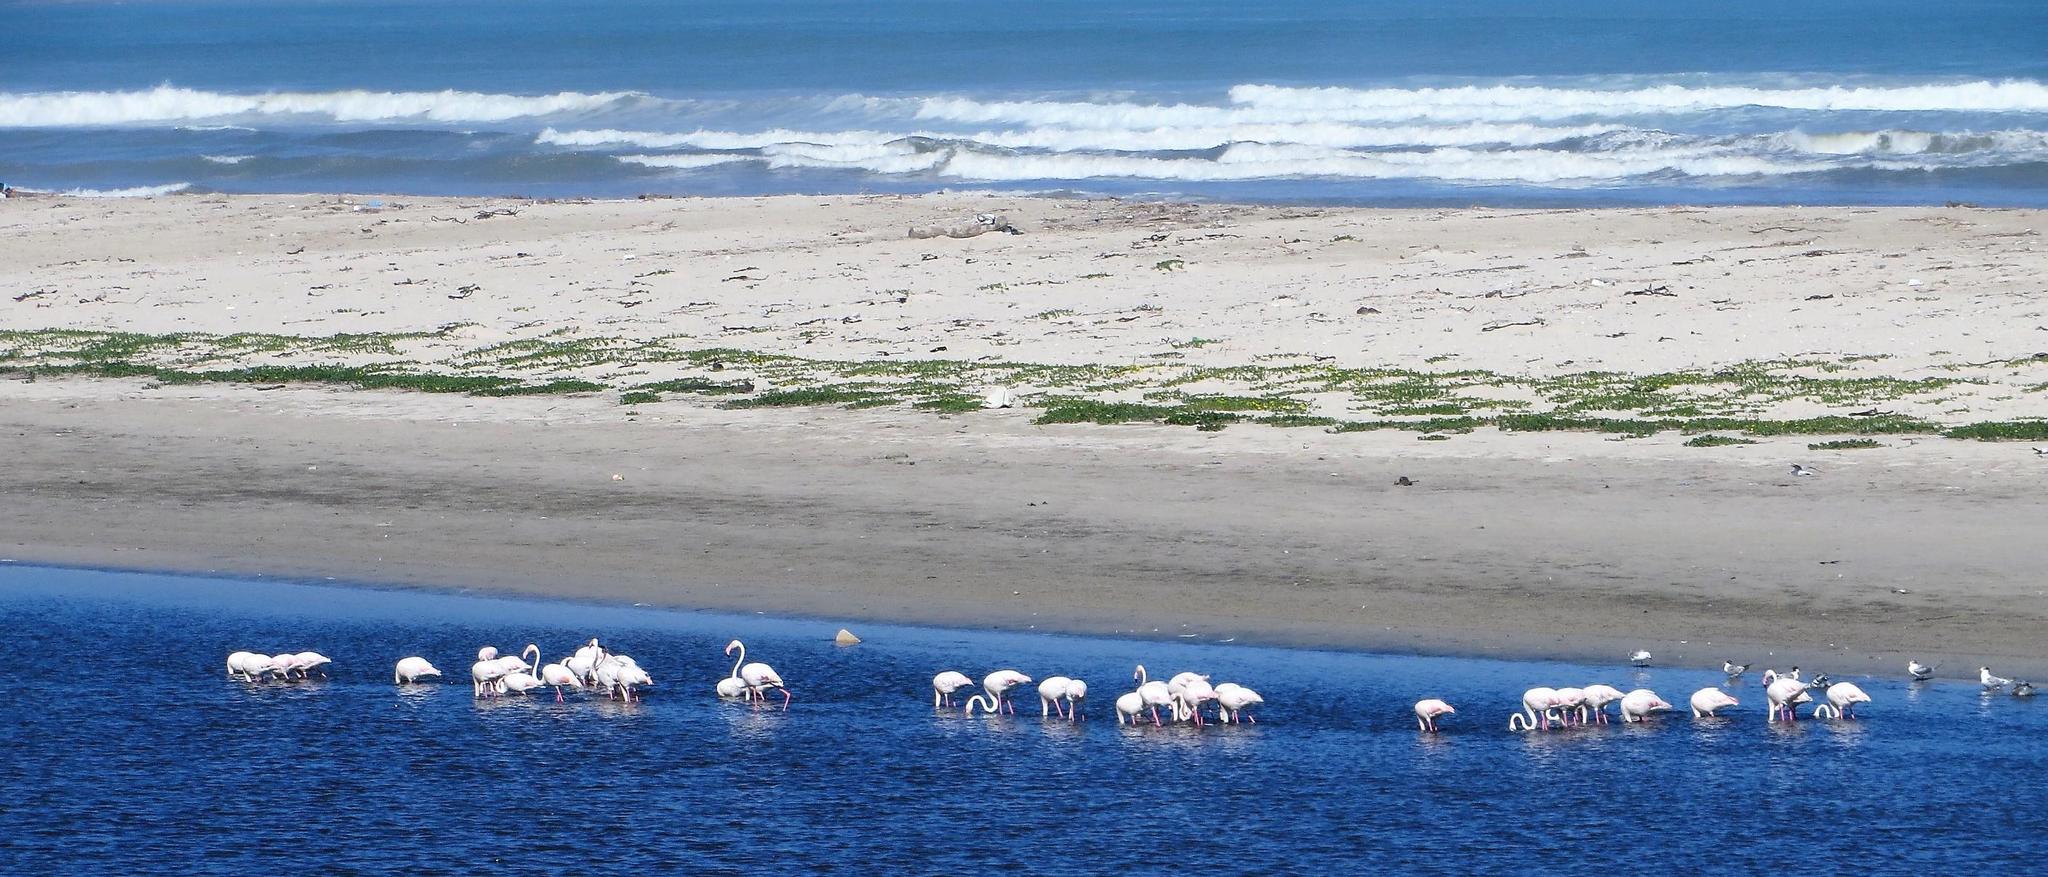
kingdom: Animalia
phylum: Chordata
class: Aves
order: Phoenicopteriformes
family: Phoenicopteridae
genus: Phoenicopterus
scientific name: Phoenicopterus roseus
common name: Greater flamingo
